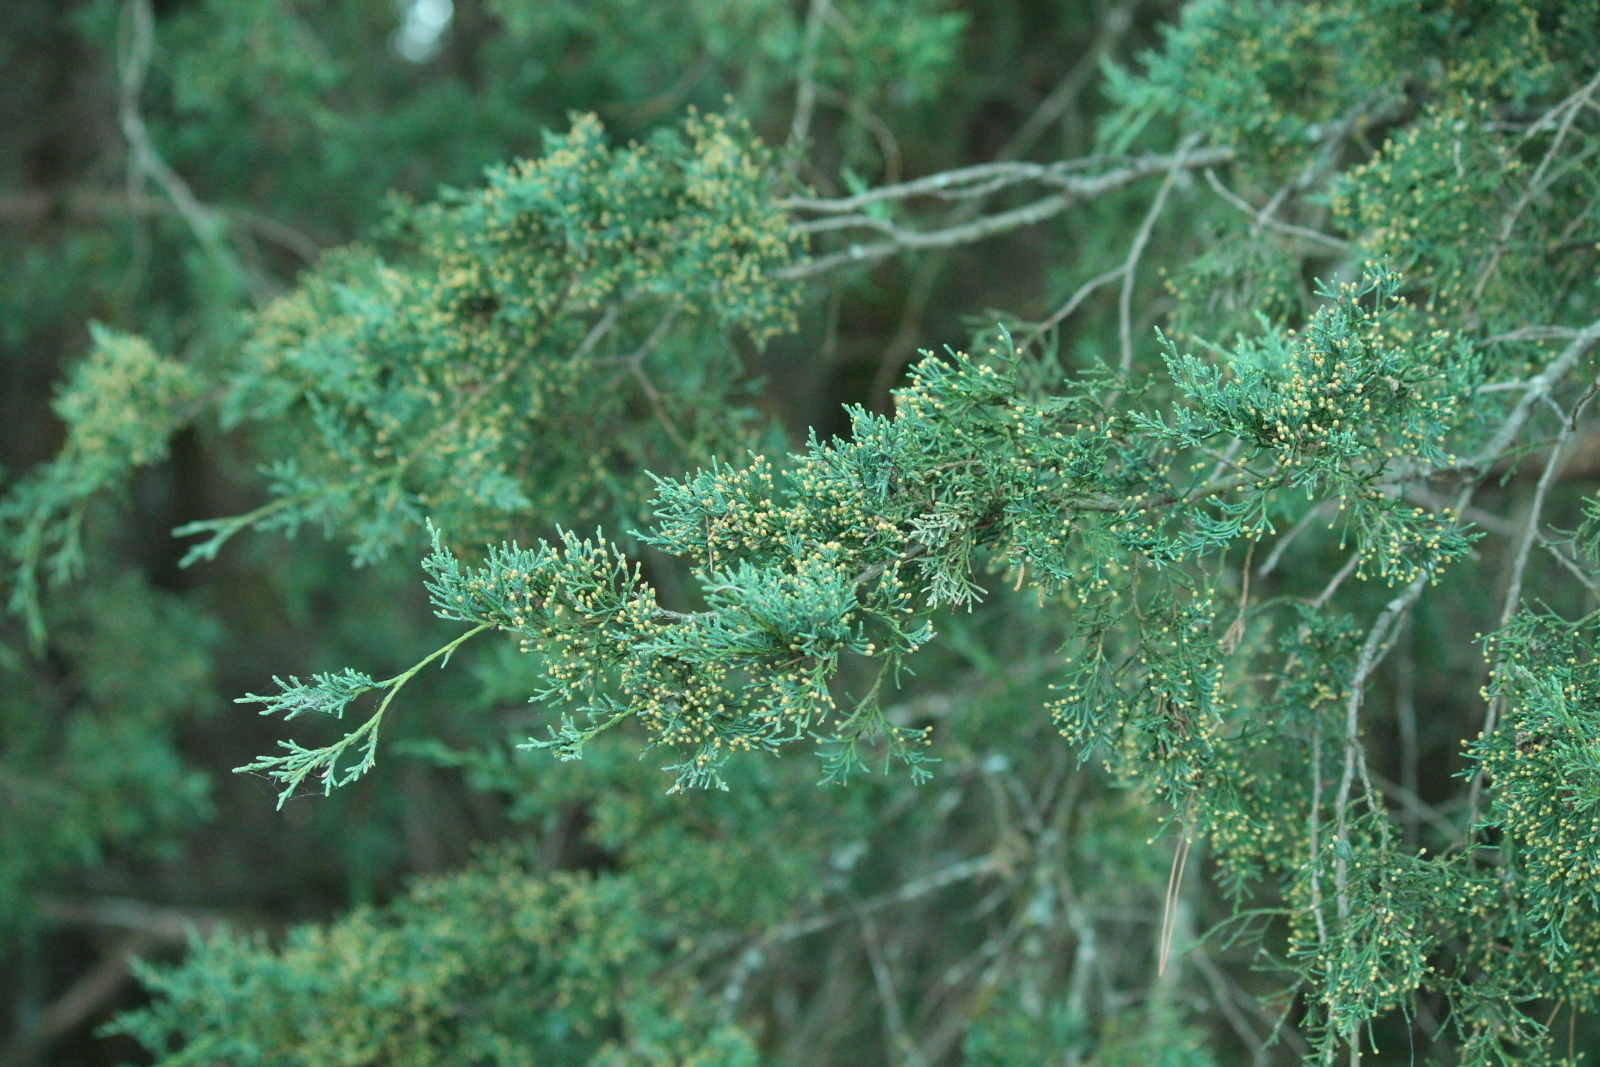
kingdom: Plantae
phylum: Tracheophyta
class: Pinopsida
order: Pinales
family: Cupressaceae
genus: Juniperus
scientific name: Juniperus virginiana
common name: Red juniper
